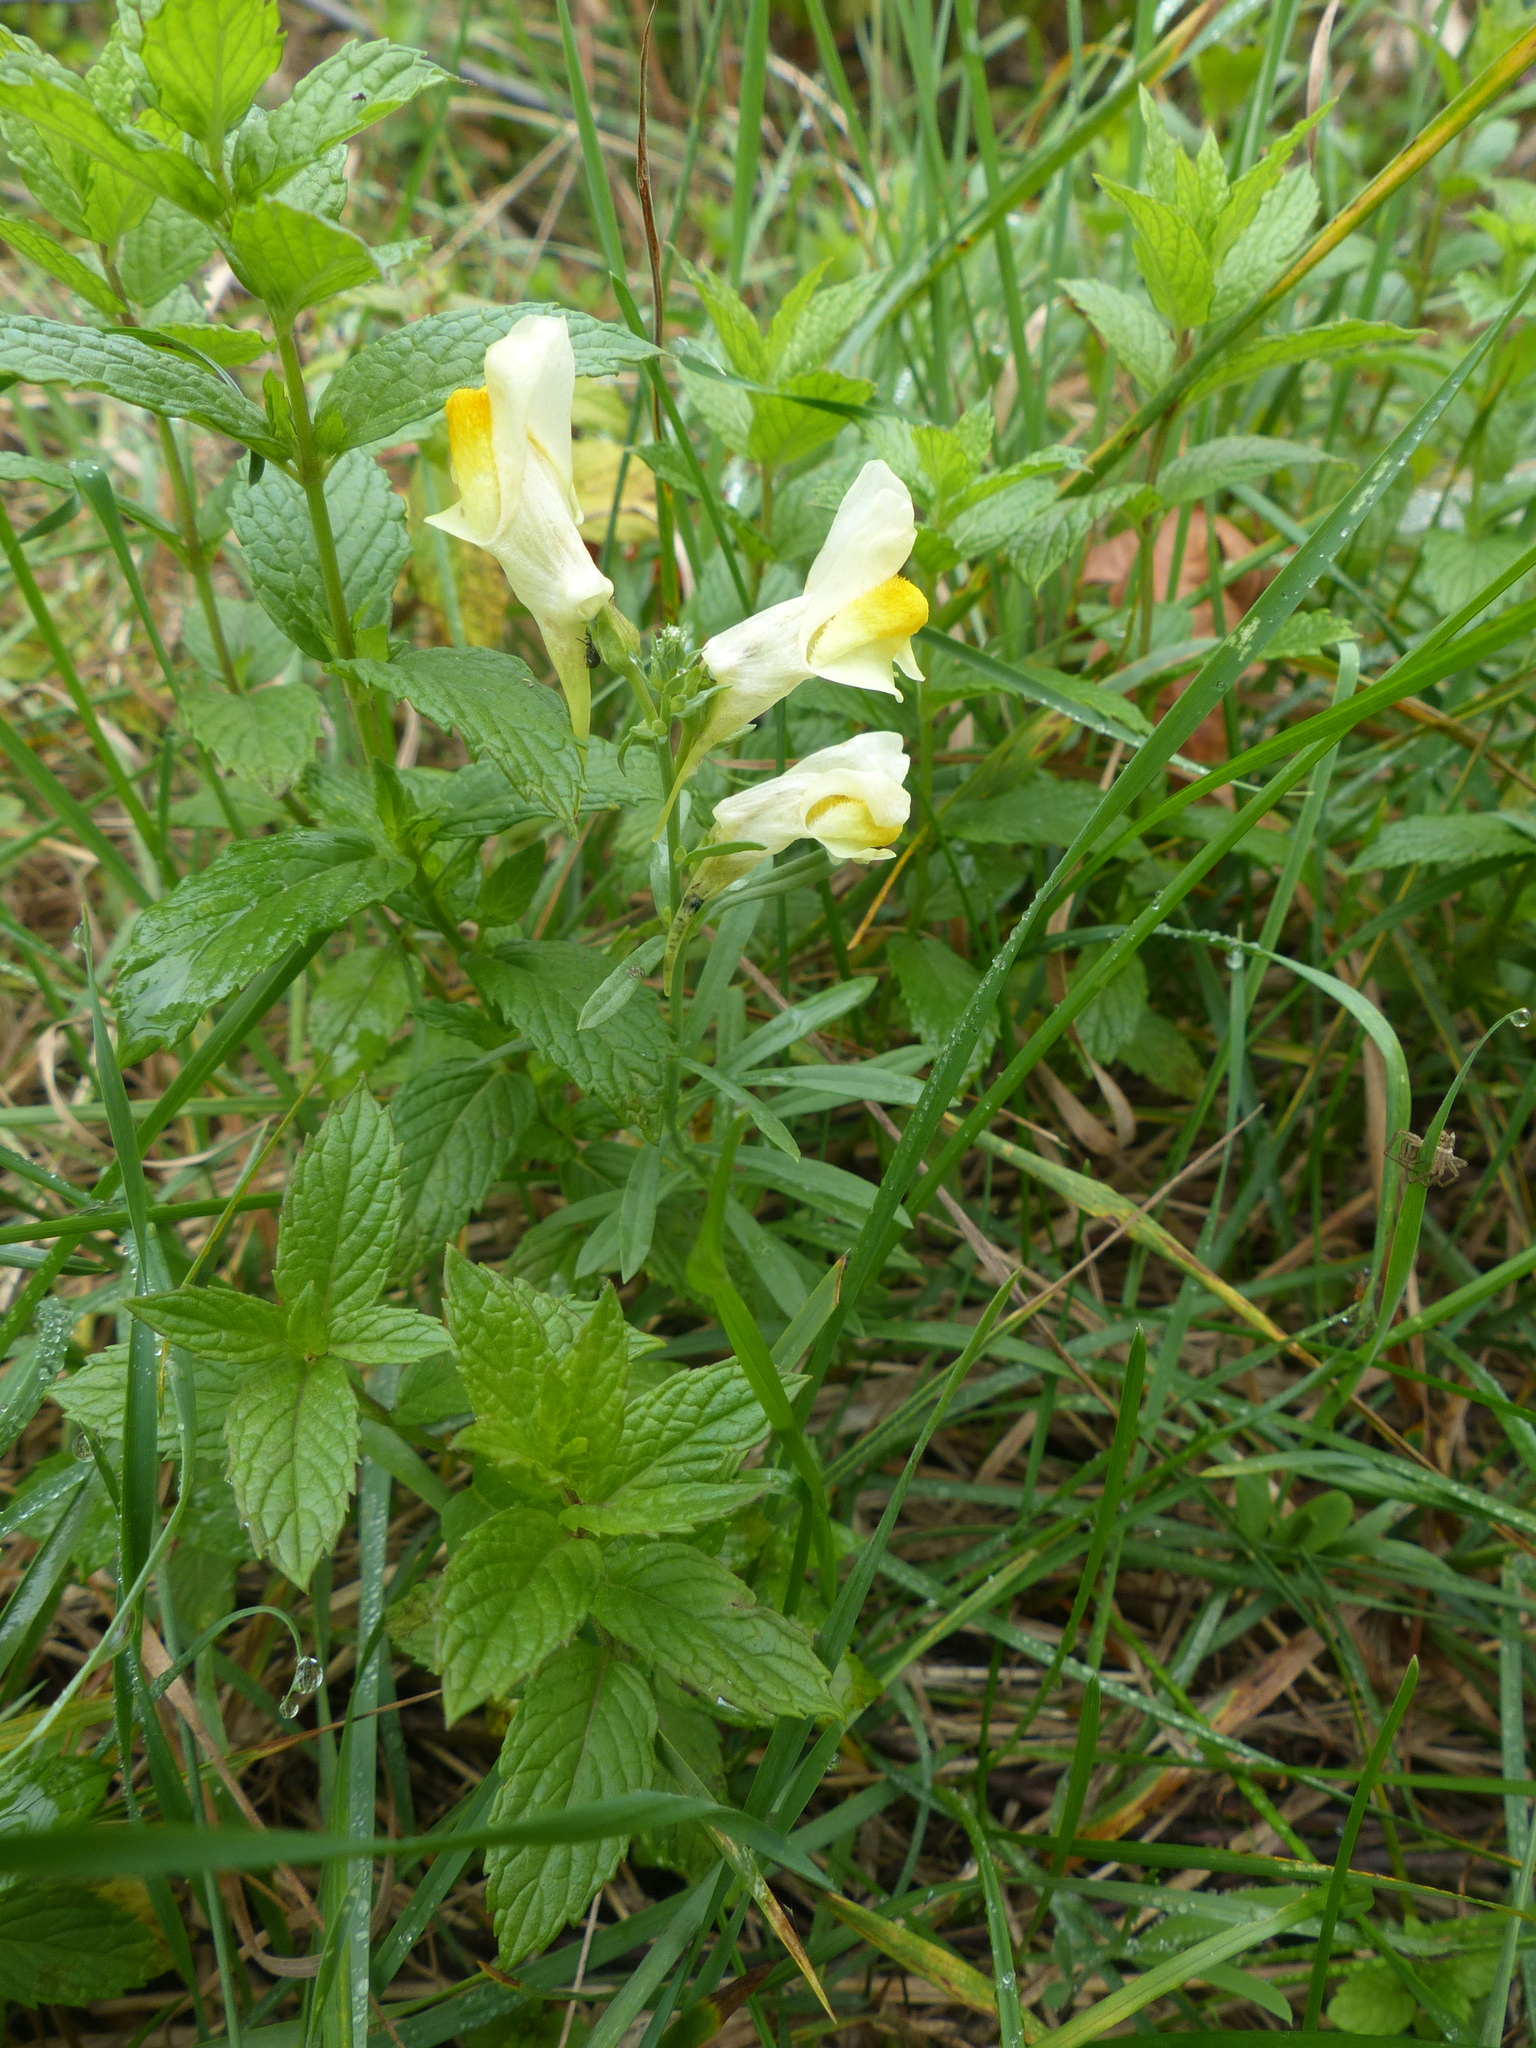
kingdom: Plantae
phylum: Tracheophyta
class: Magnoliopsida
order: Lamiales
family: Plantaginaceae
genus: Linaria
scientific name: Linaria vulgaris
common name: Butter and eggs
